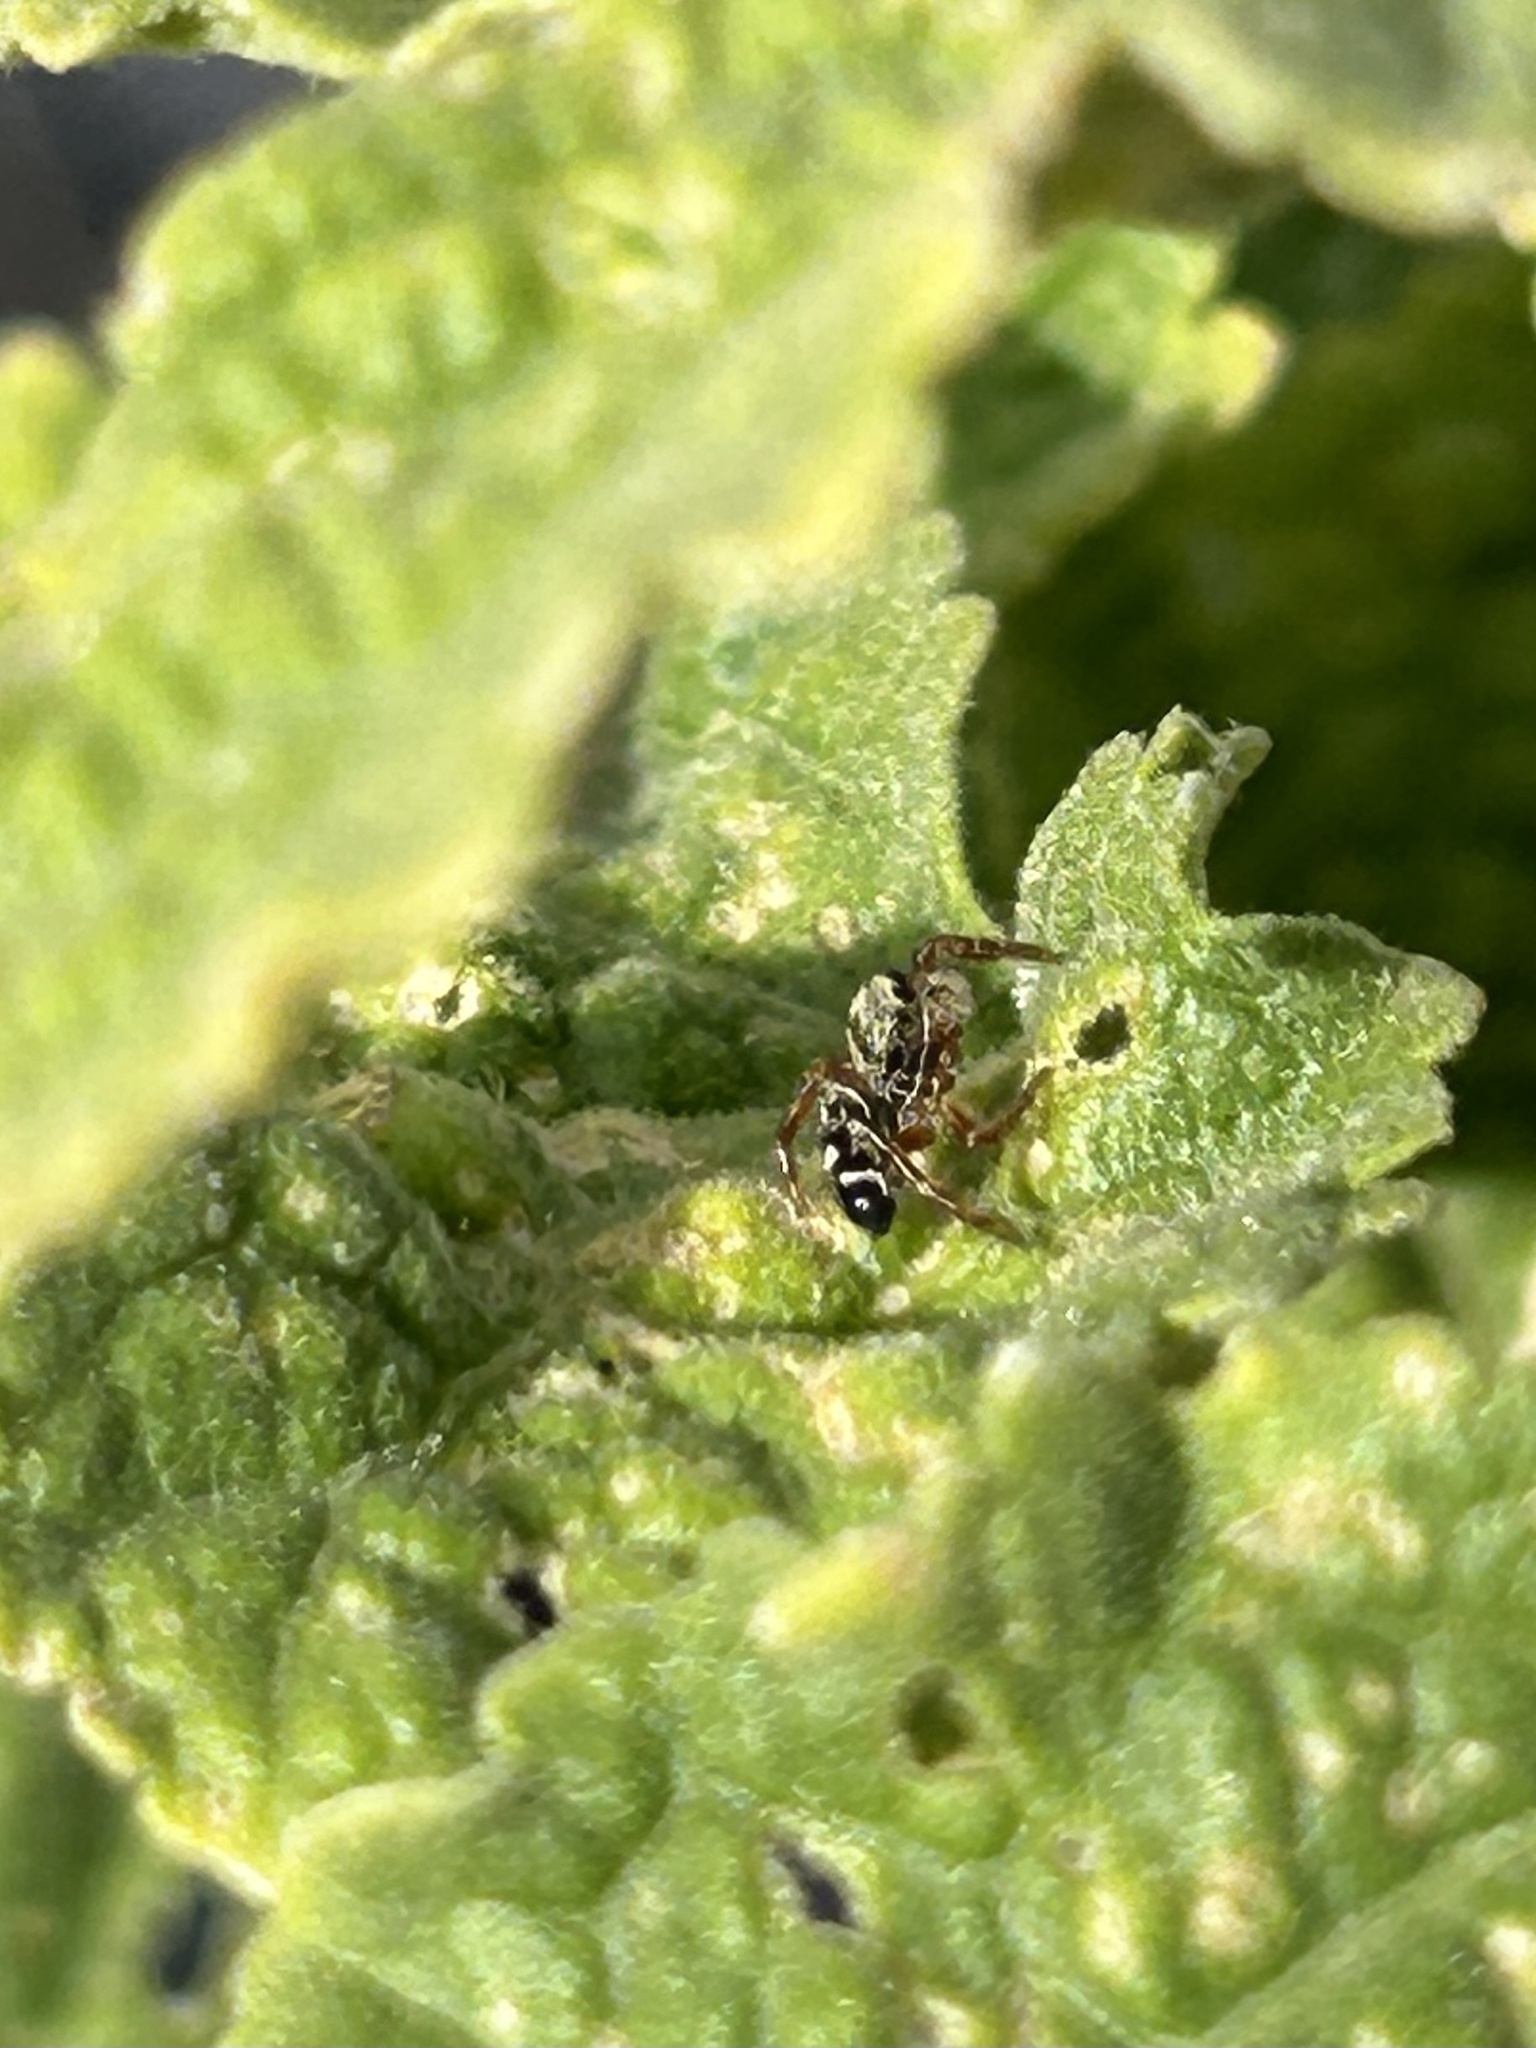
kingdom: Animalia
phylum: Arthropoda
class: Arachnida
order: Araneae
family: Salticidae
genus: Phidippus
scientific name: Phidippus audax
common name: Bold jumper
